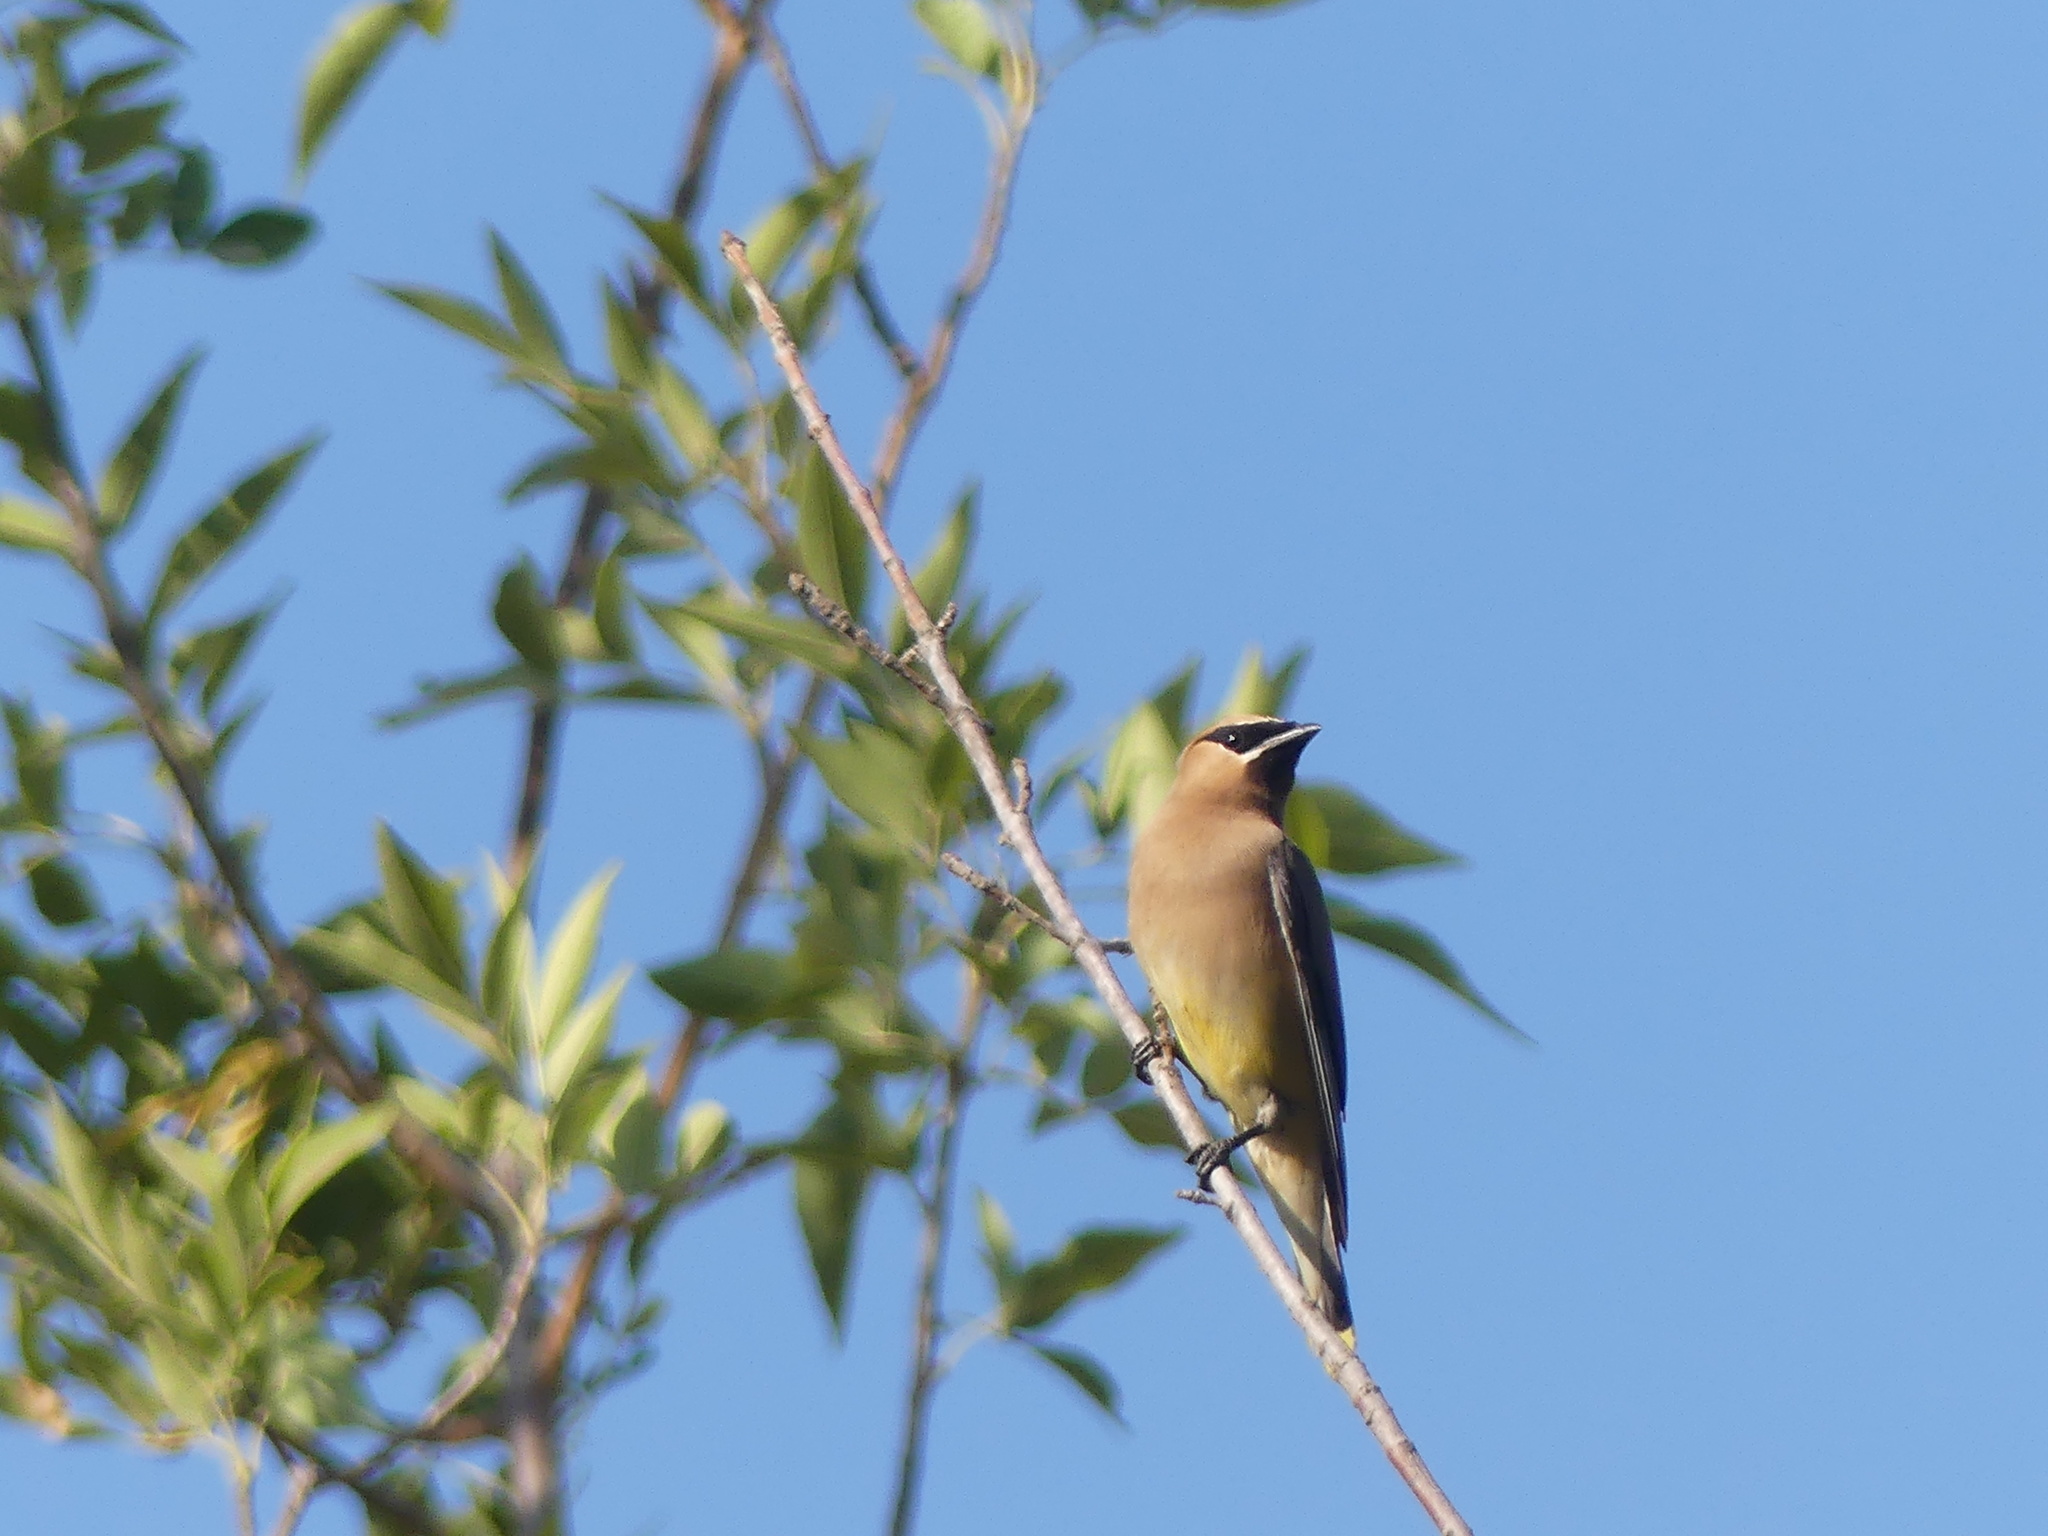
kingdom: Animalia
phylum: Chordata
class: Aves
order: Passeriformes
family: Bombycillidae
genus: Bombycilla
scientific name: Bombycilla cedrorum
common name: Cedar waxwing
